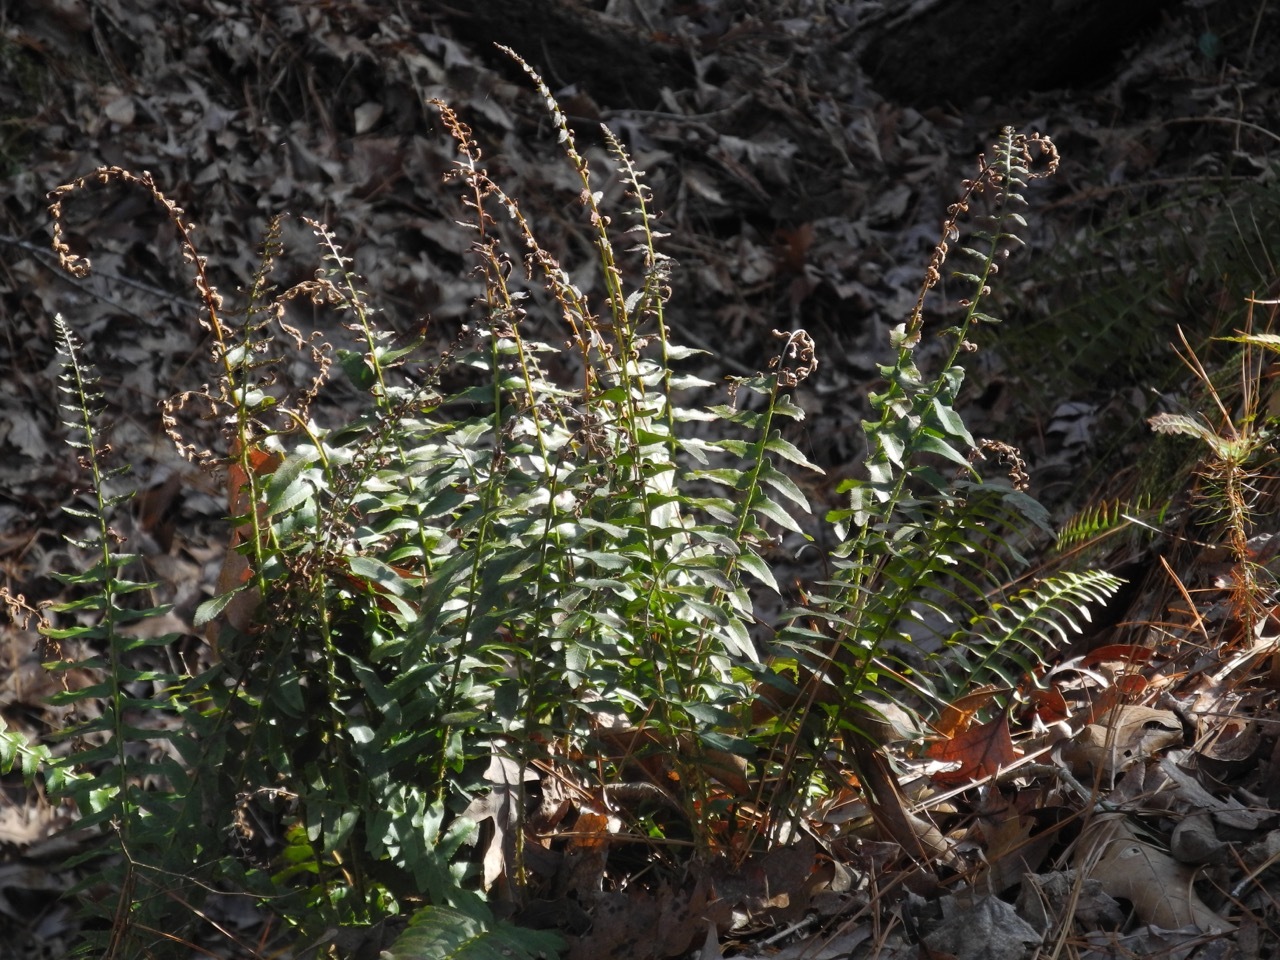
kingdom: Plantae
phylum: Tracheophyta
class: Polypodiopsida
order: Polypodiales
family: Dryopteridaceae
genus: Polystichum
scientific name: Polystichum acrostichoides
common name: Christmas fern
